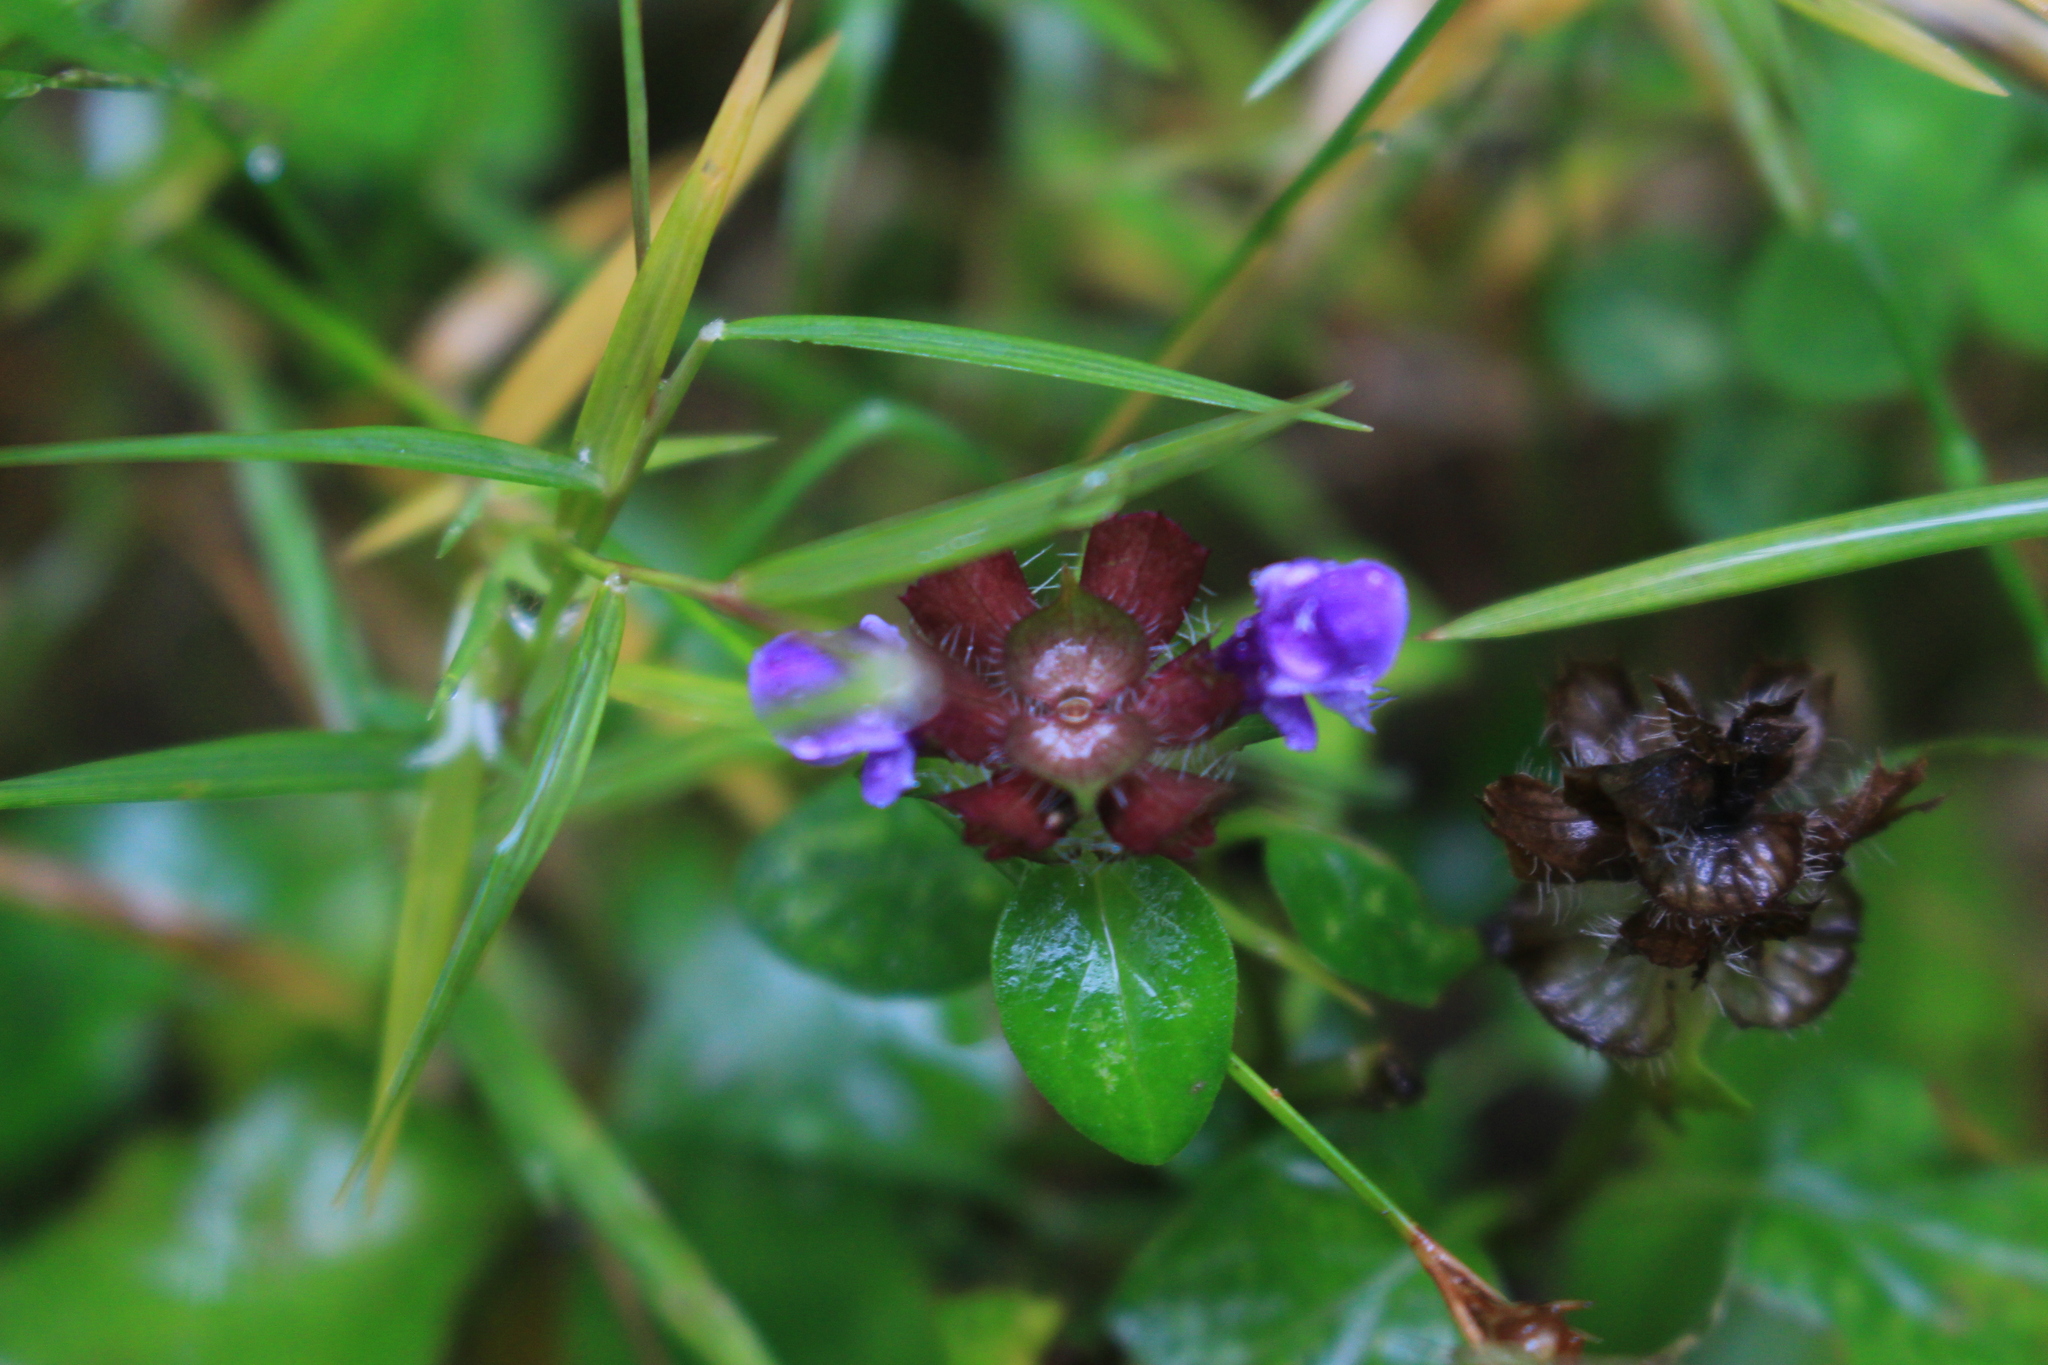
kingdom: Plantae
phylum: Tracheophyta
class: Magnoliopsida
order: Lamiales
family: Lamiaceae
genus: Prunella
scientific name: Prunella vulgaris
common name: Heal-all
